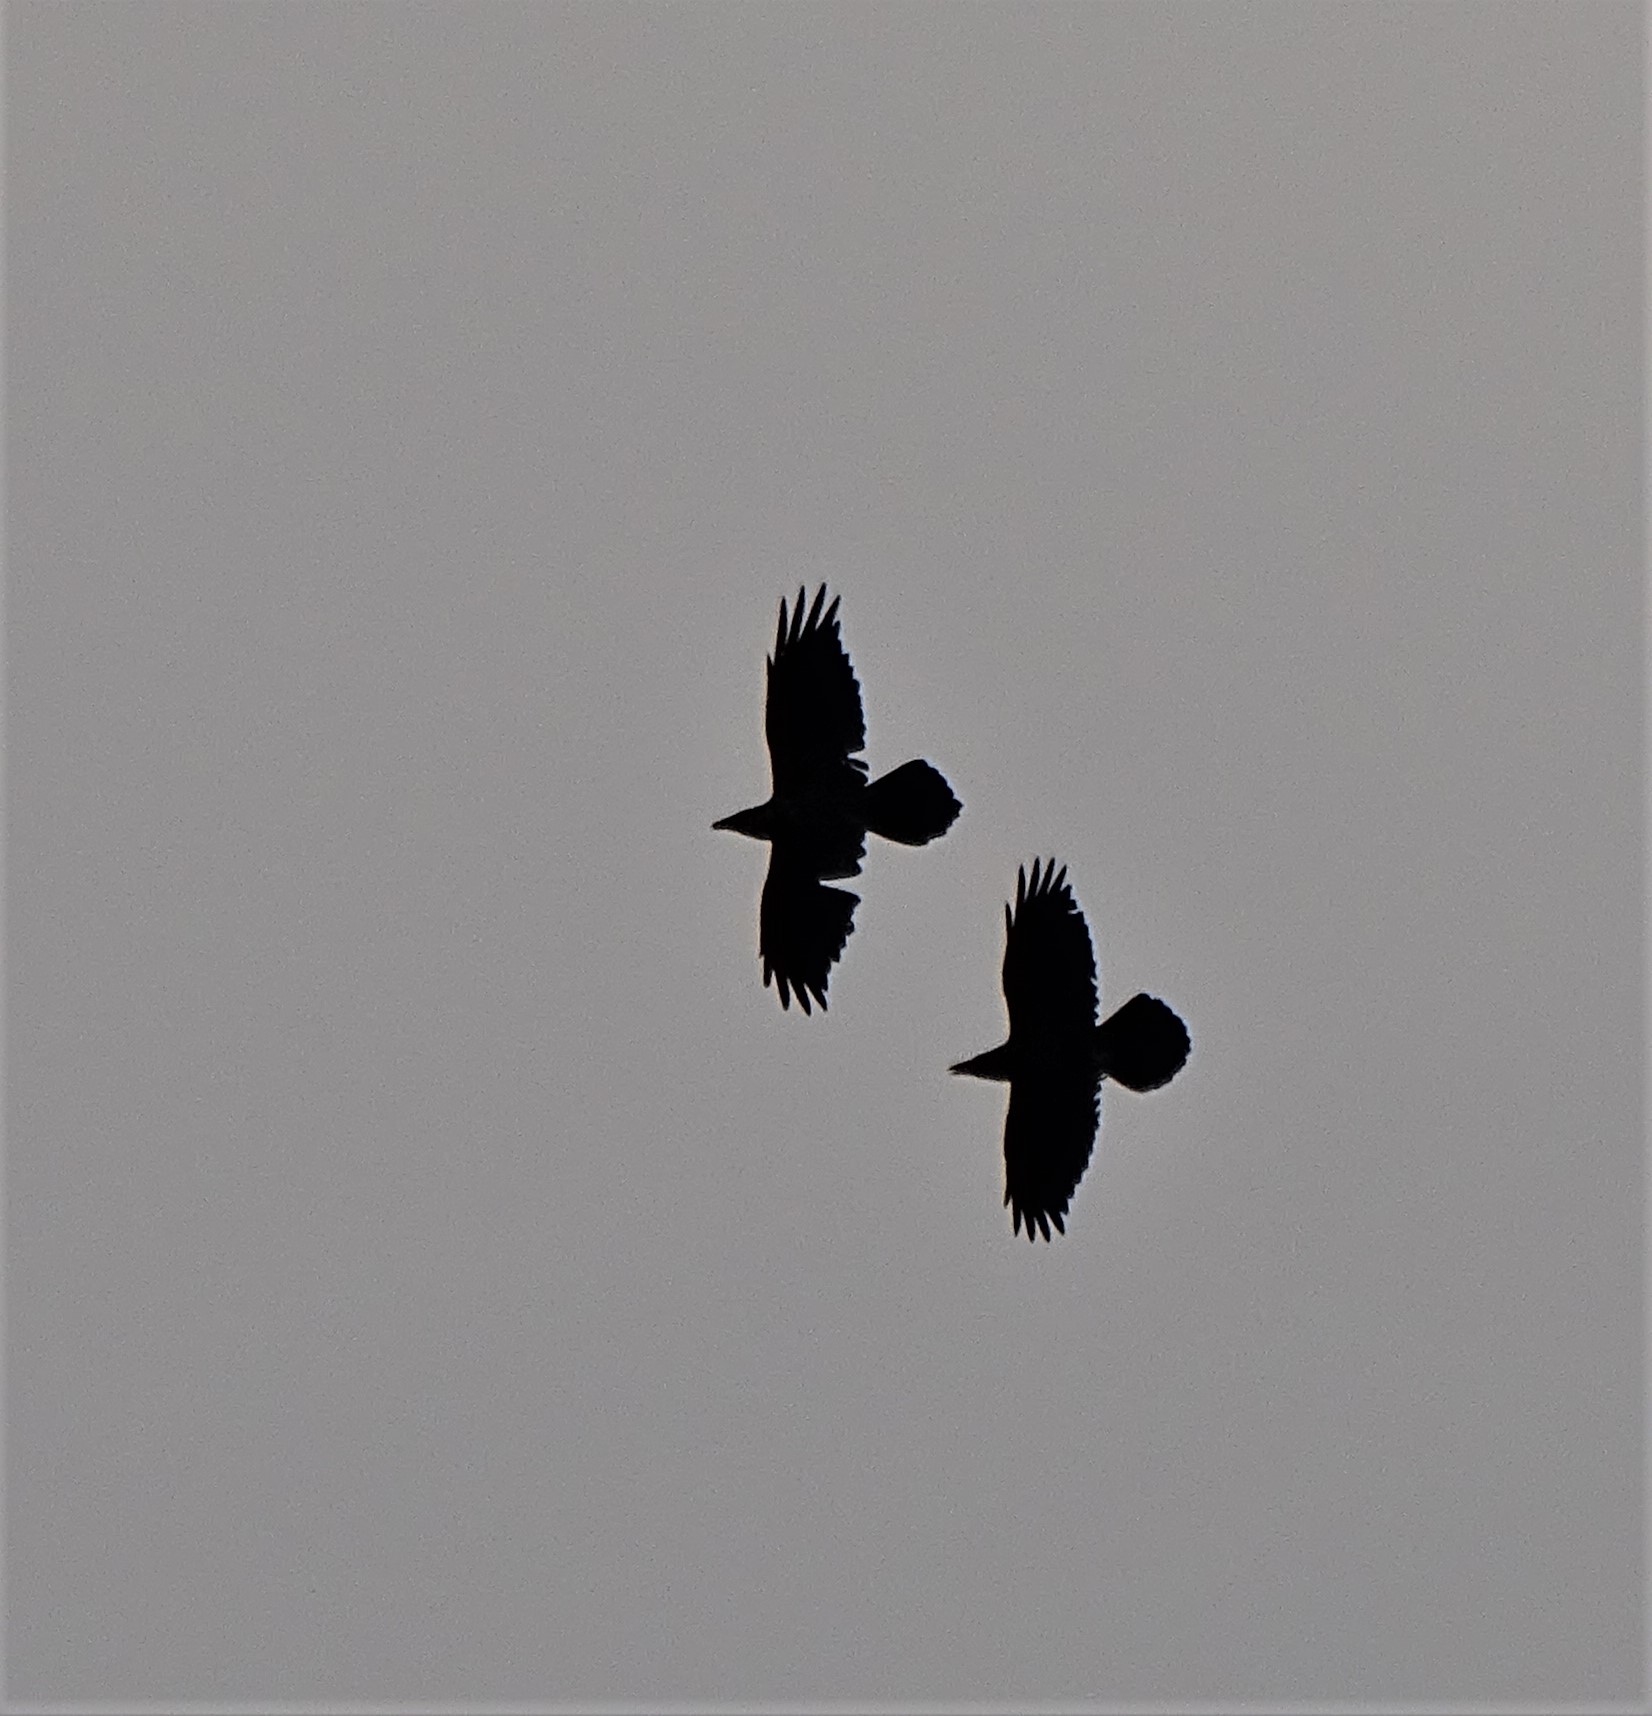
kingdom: Animalia
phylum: Chordata
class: Aves
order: Passeriformes
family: Corvidae
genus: Corvus
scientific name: Corvus corax
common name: Common raven
